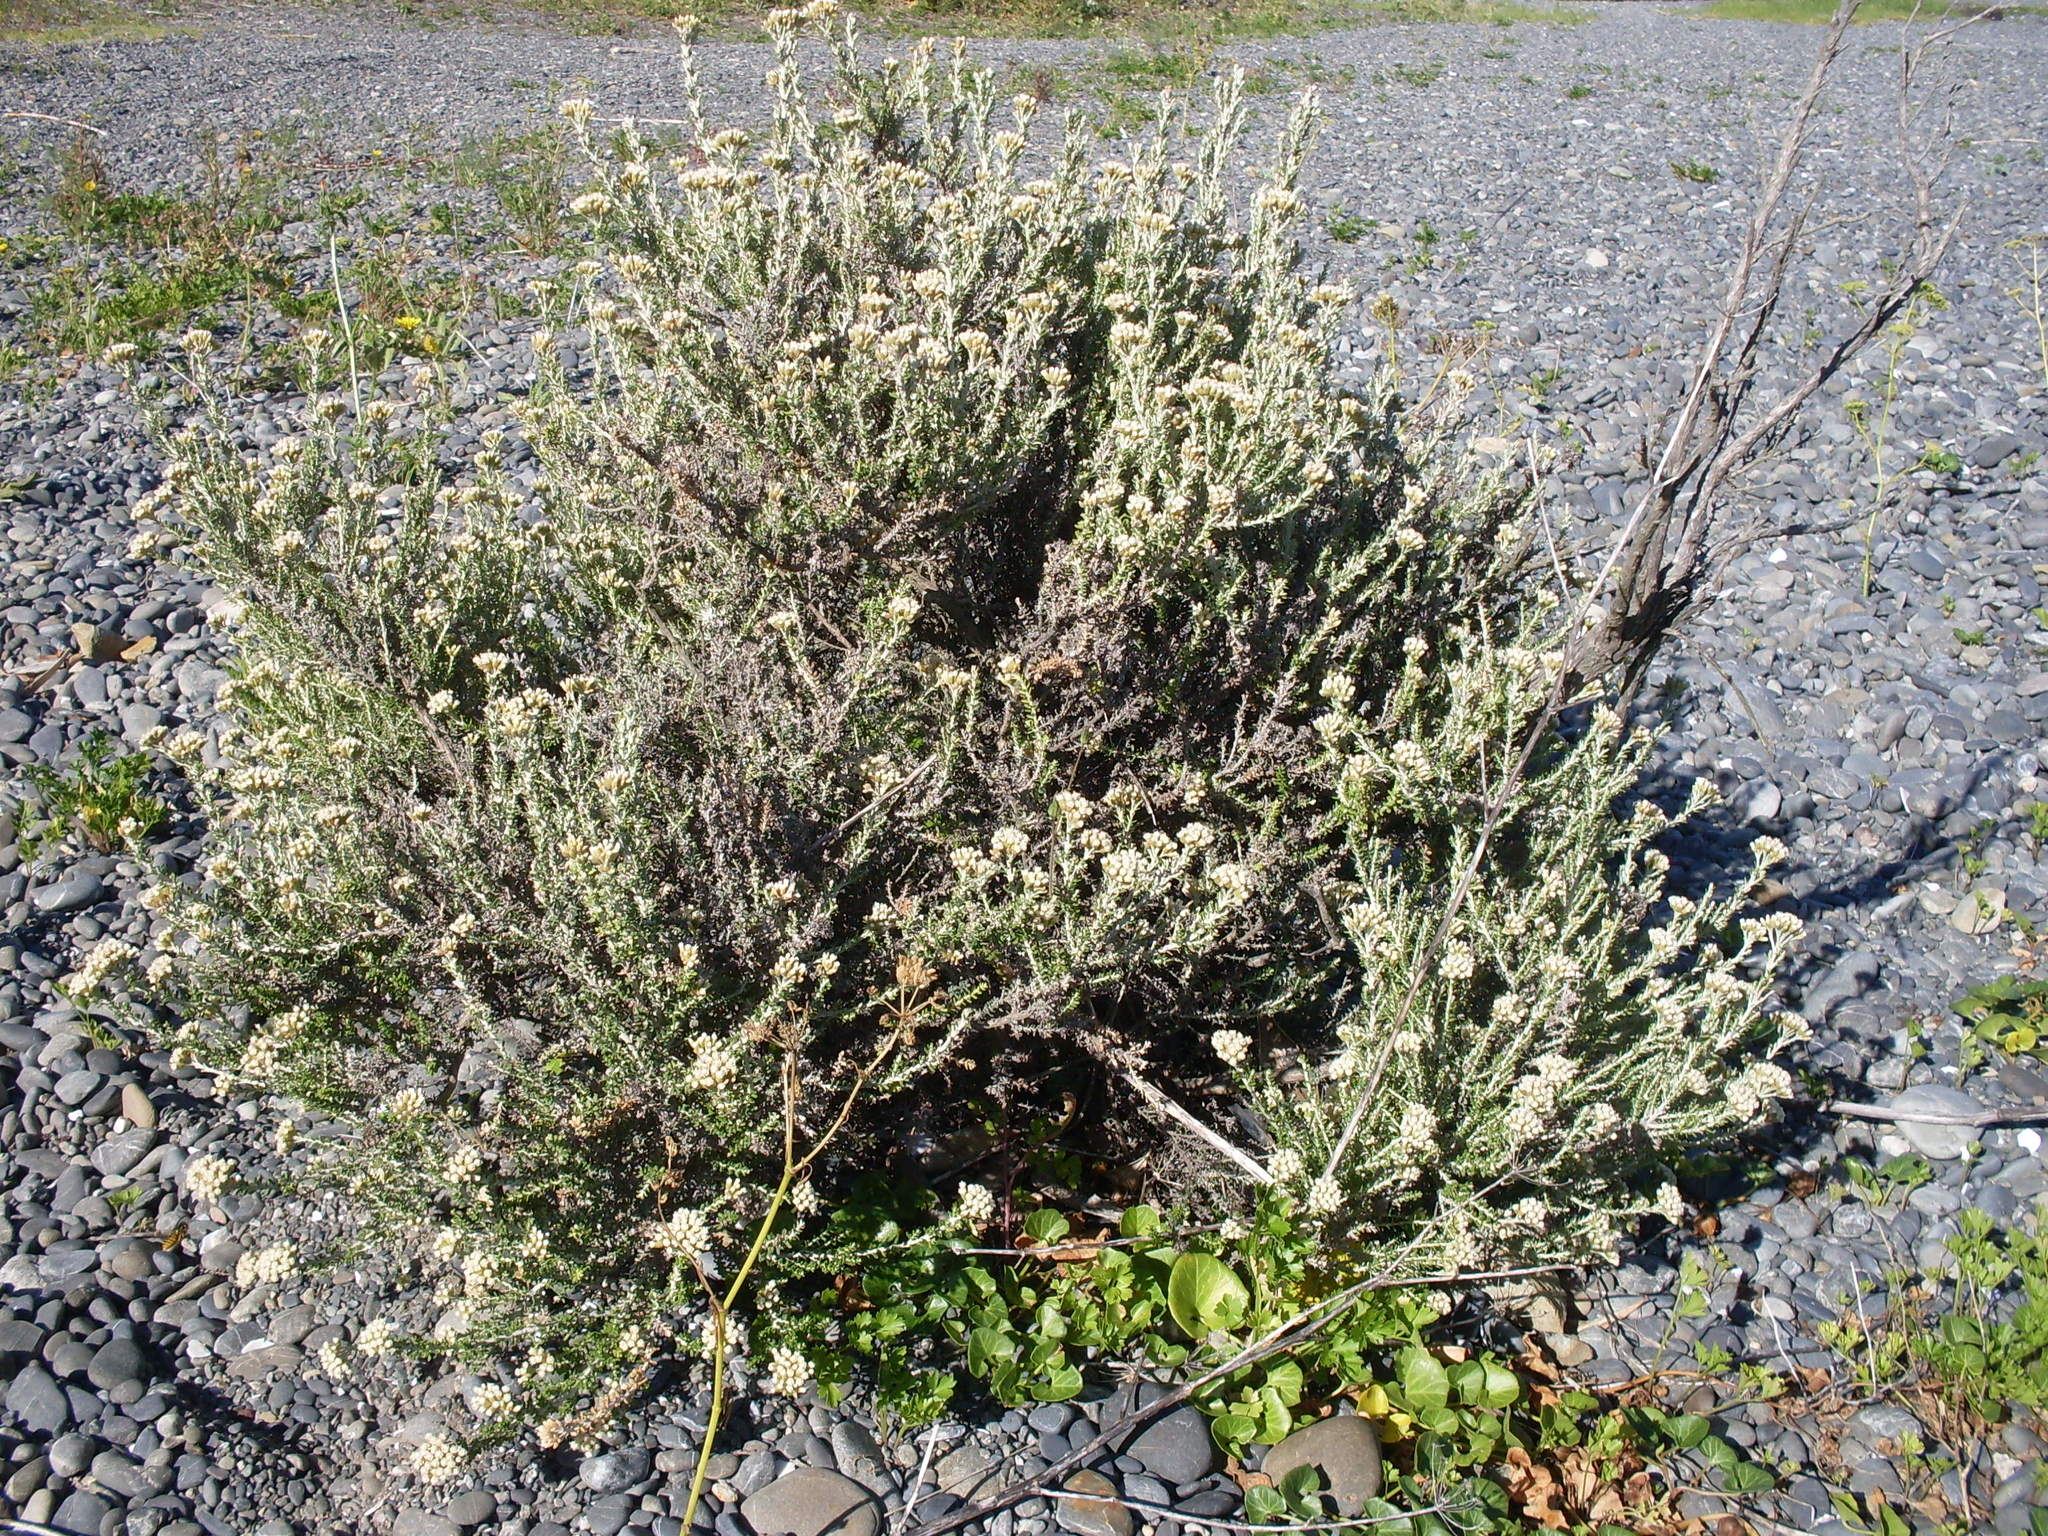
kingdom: Plantae
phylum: Tracheophyta
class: Magnoliopsida
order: Asterales
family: Asteraceae
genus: Ozothamnus
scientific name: Ozothamnus leptophyllus
